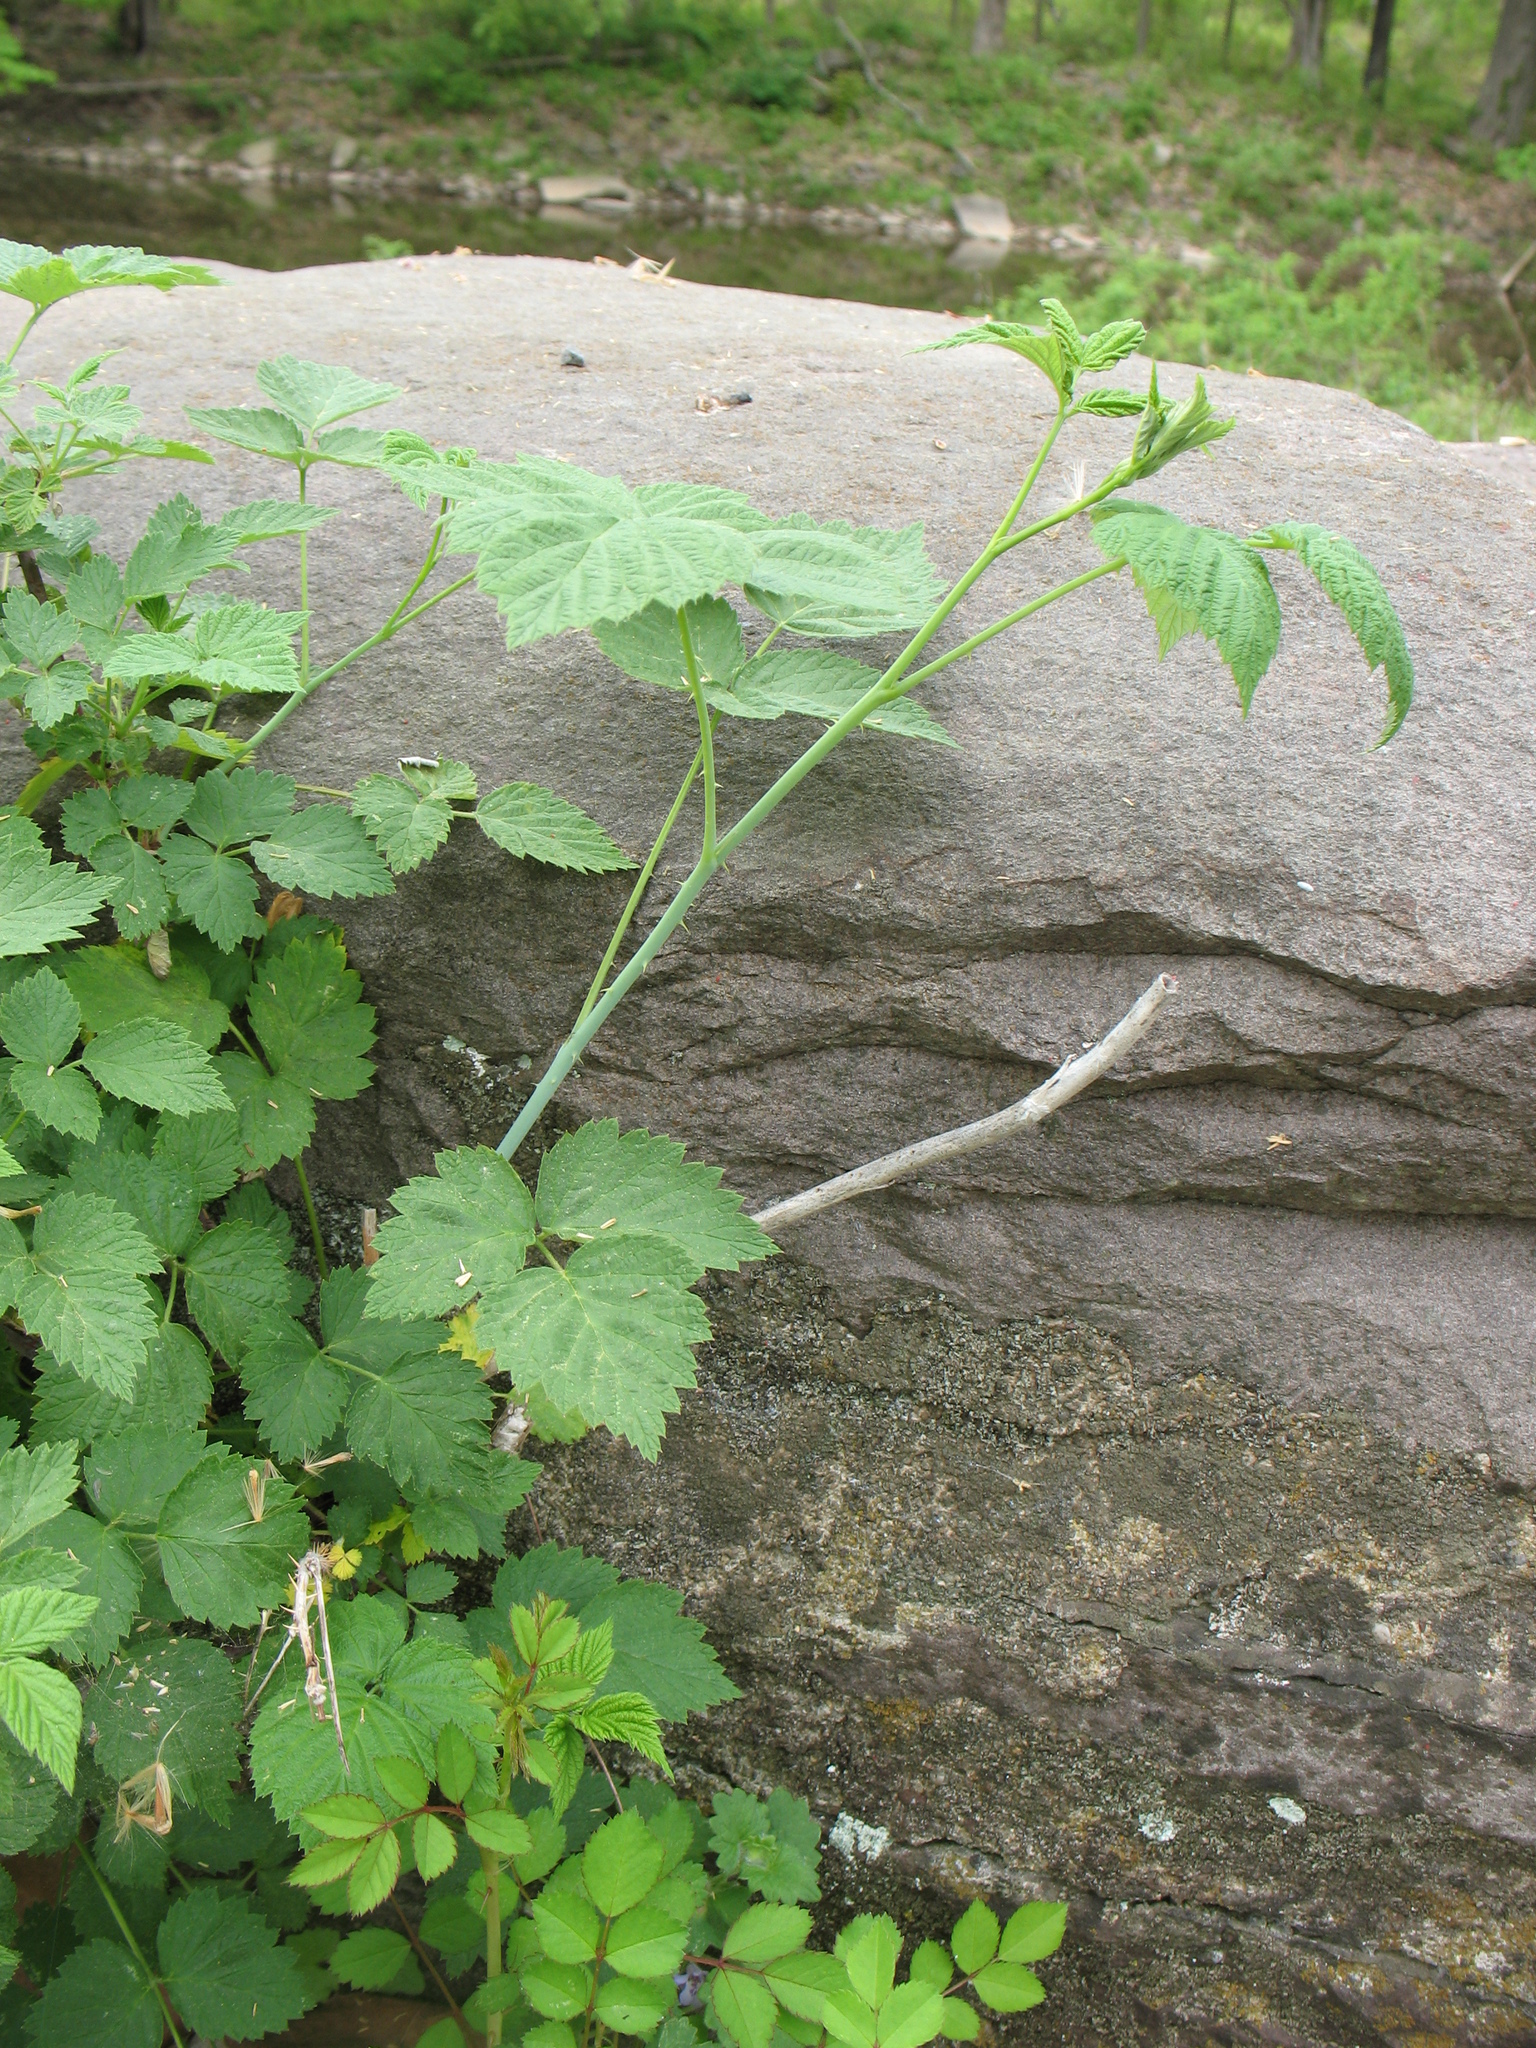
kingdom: Plantae
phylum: Tracheophyta
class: Magnoliopsida
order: Rosales
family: Rosaceae
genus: Rubus
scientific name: Rubus occidentalis
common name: Black raspberry
